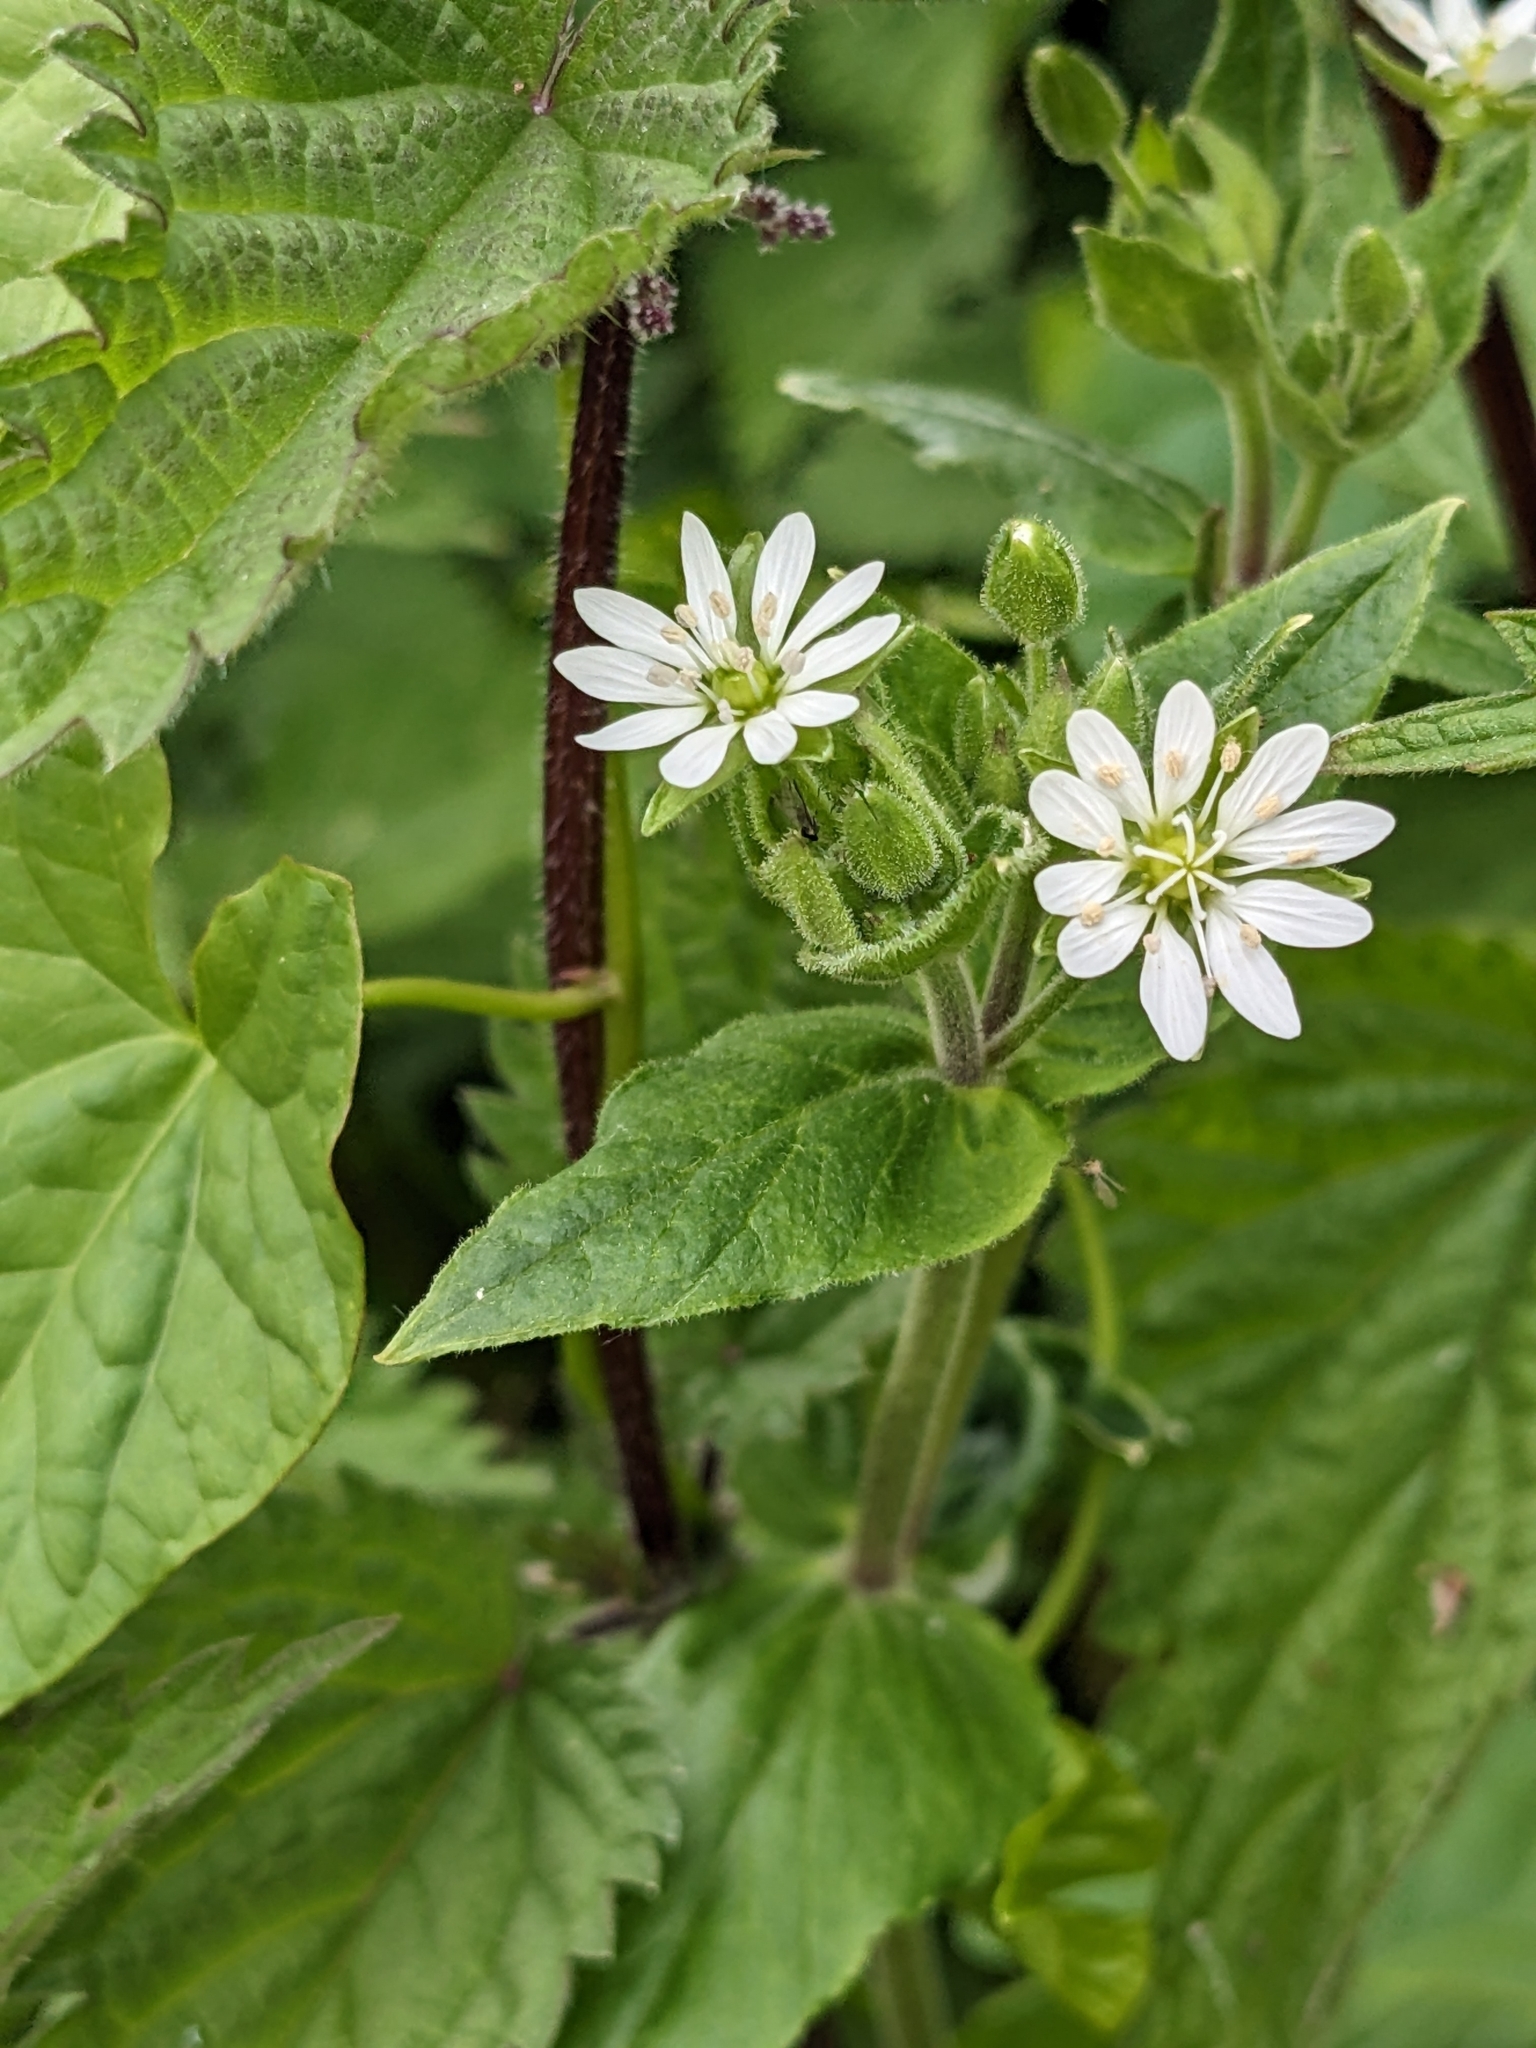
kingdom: Plantae
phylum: Tracheophyta
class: Magnoliopsida
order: Caryophyllales
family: Caryophyllaceae
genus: Stellaria
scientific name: Stellaria aquatica
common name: Water chickweed
